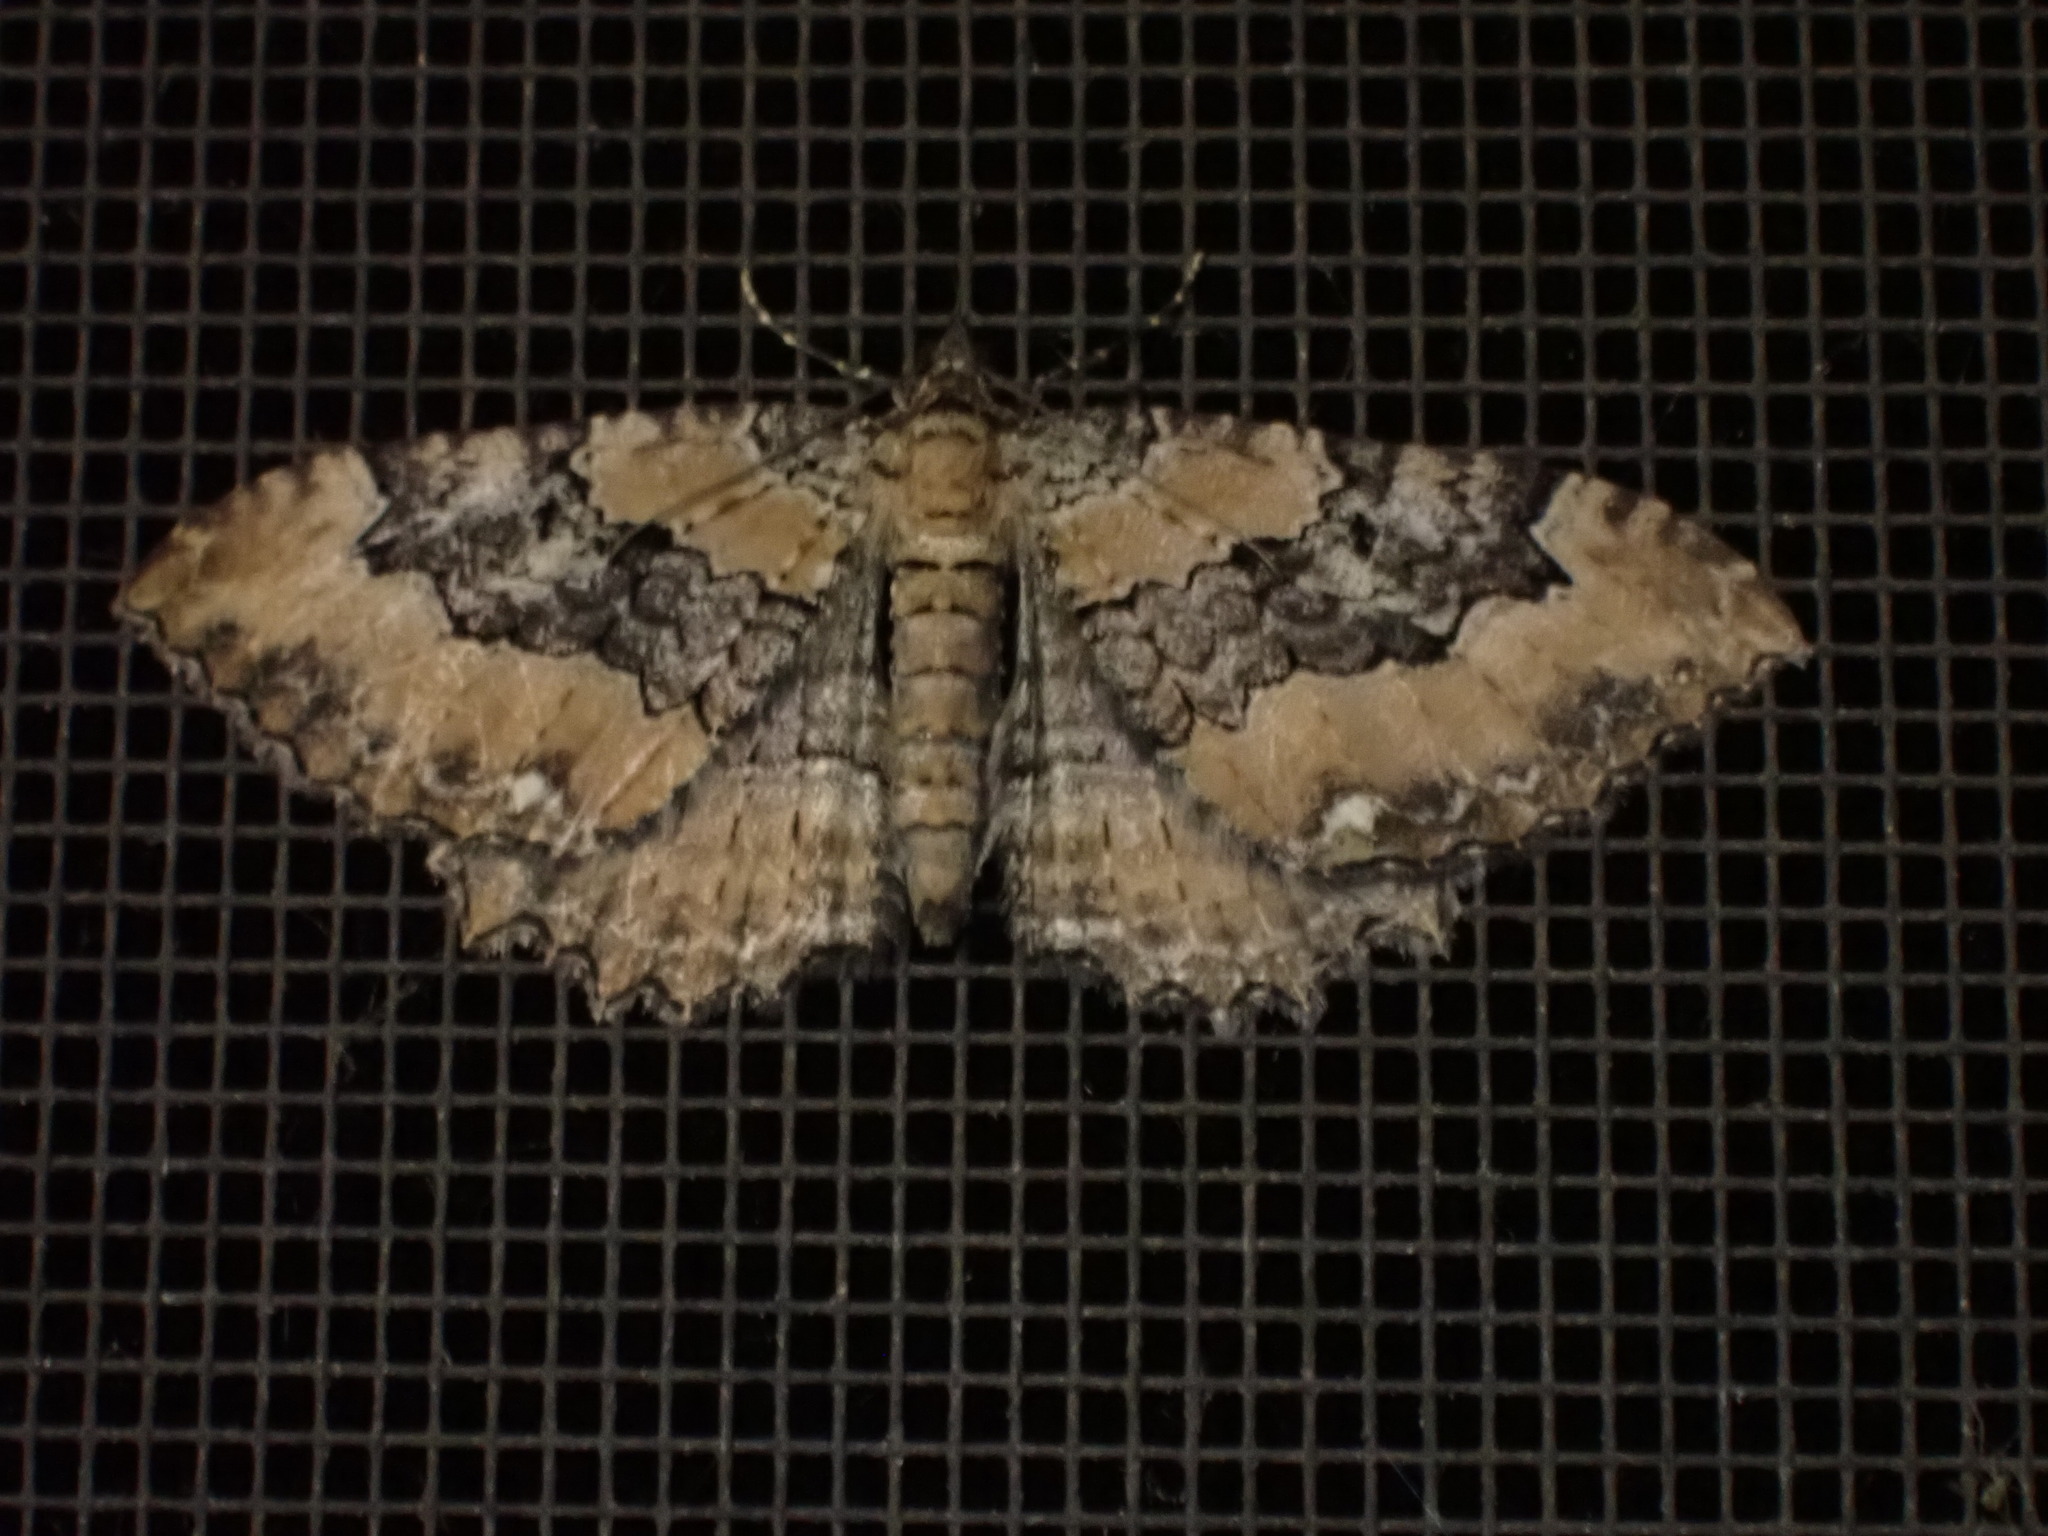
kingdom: Animalia
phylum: Arthropoda
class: Insecta
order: Lepidoptera
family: Geometridae
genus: Rheumaptera
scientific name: Rheumaptera
